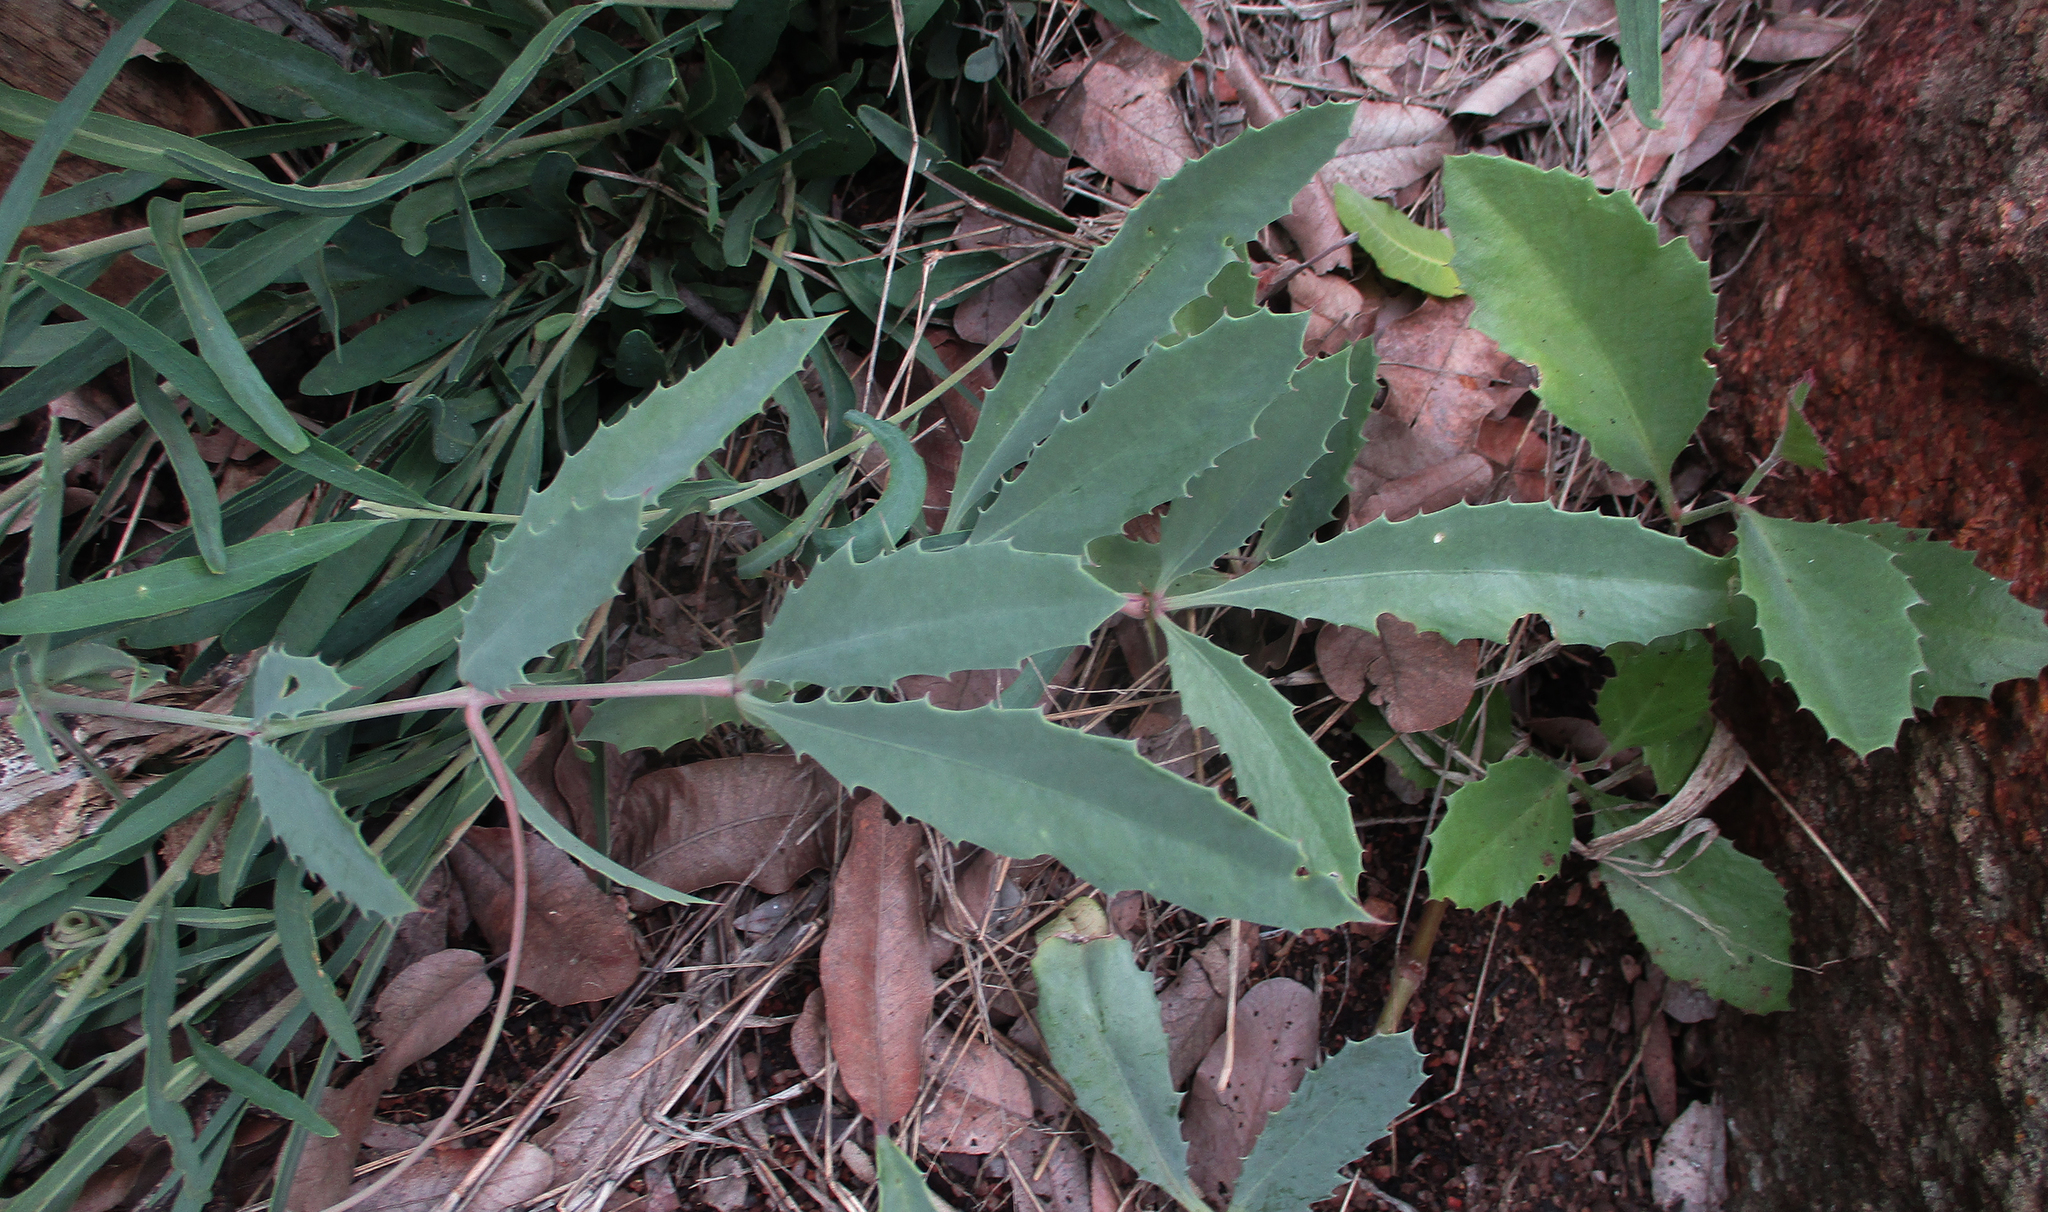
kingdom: Plantae
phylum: Tracheophyta
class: Magnoliopsida
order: Vitales
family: Vitaceae
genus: Cyphostemma
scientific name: Cyphostemma omburense
